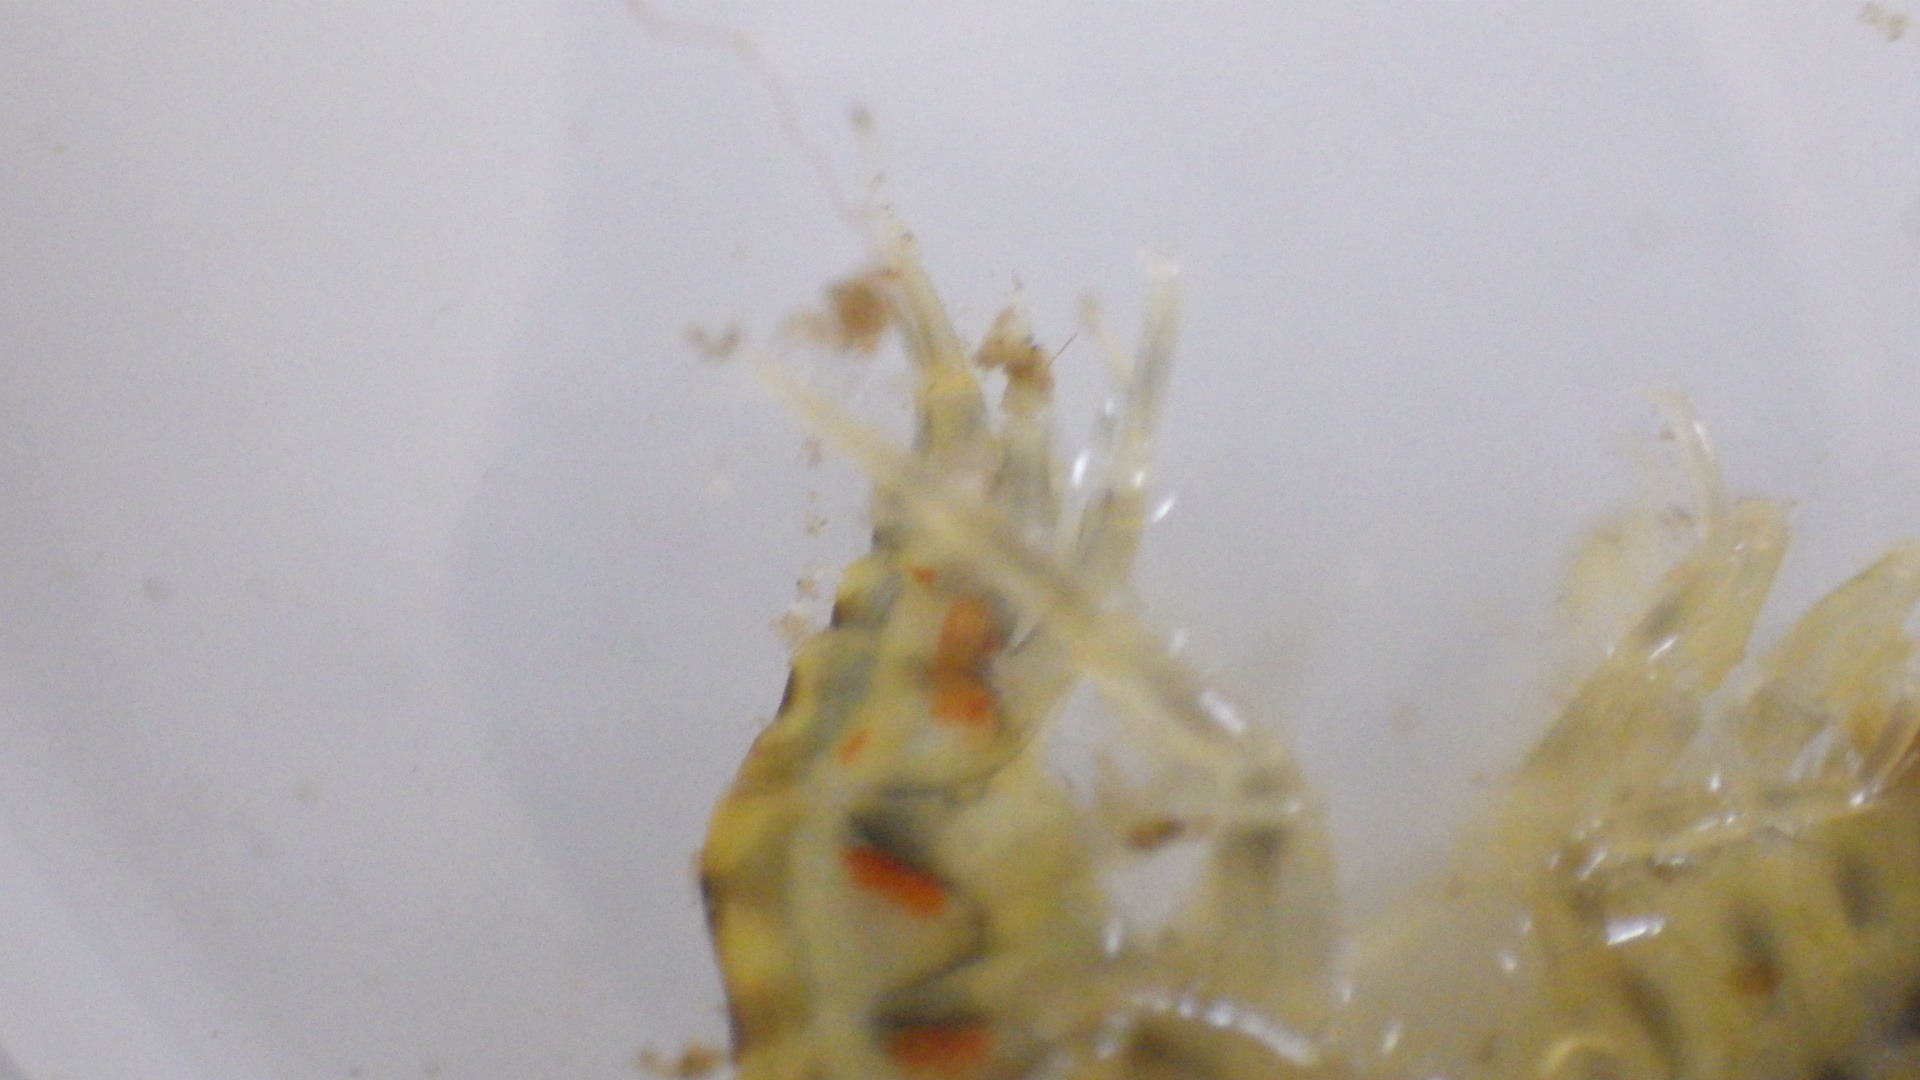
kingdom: Animalia
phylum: Arthropoda
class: Malacostraca
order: Amphipoda
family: Gammaridae
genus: Gammarus
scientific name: Gammarus fasciatus
